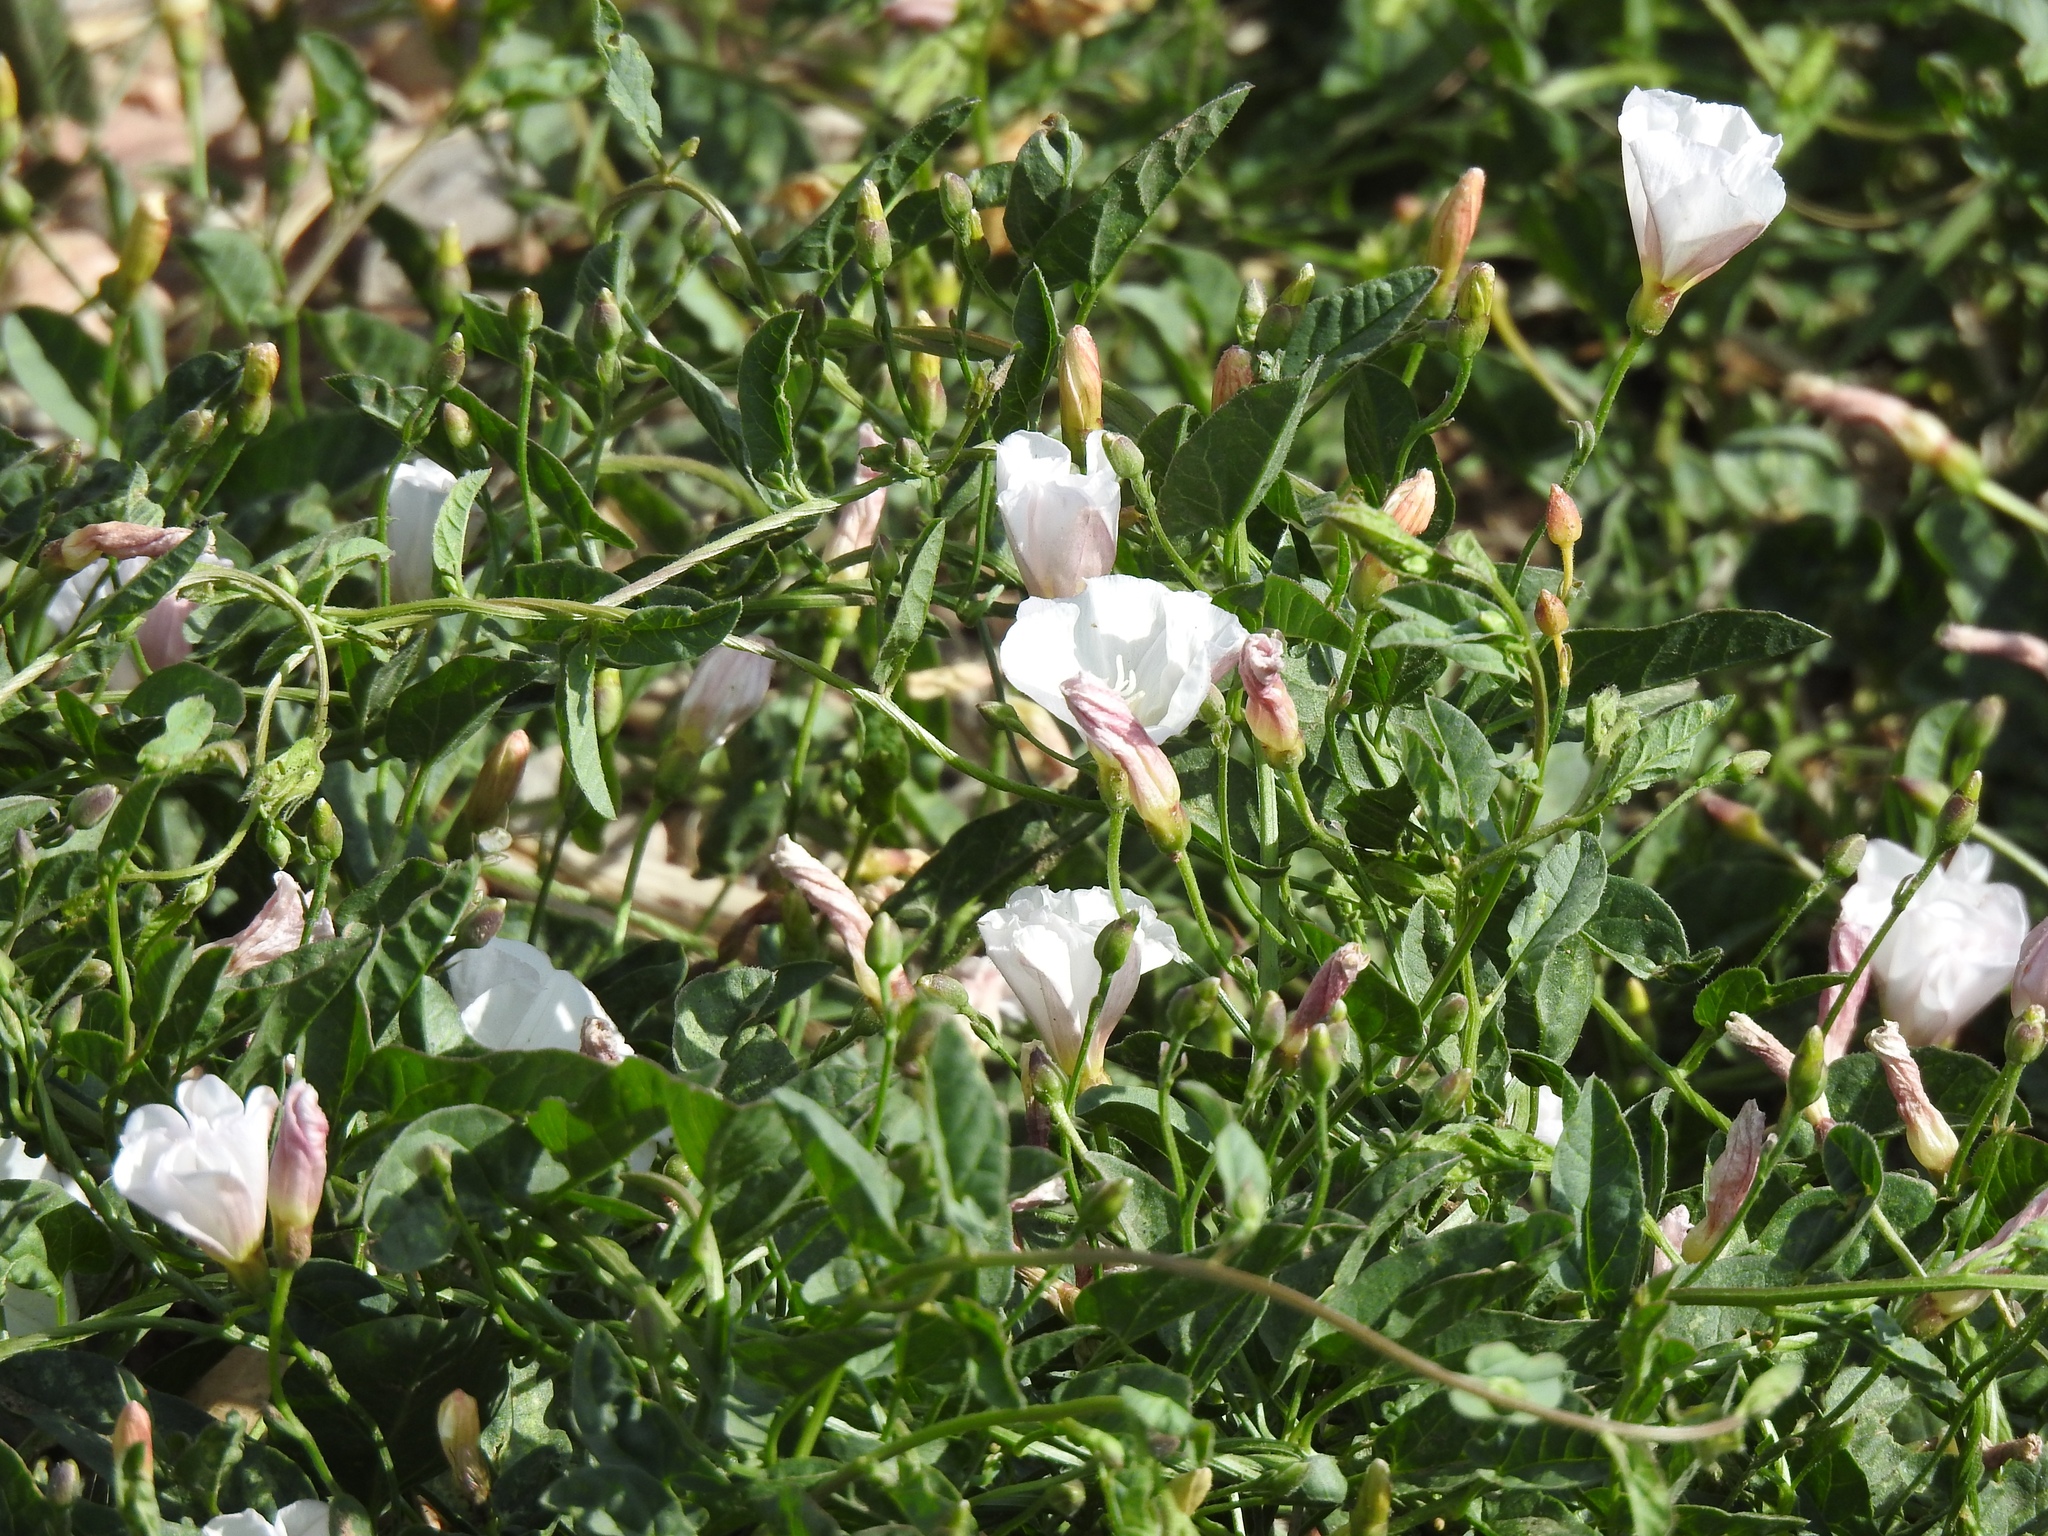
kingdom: Plantae
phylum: Tracheophyta
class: Magnoliopsida
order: Solanales
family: Convolvulaceae
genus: Convolvulus
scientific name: Convolvulus arvensis
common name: Field bindweed
